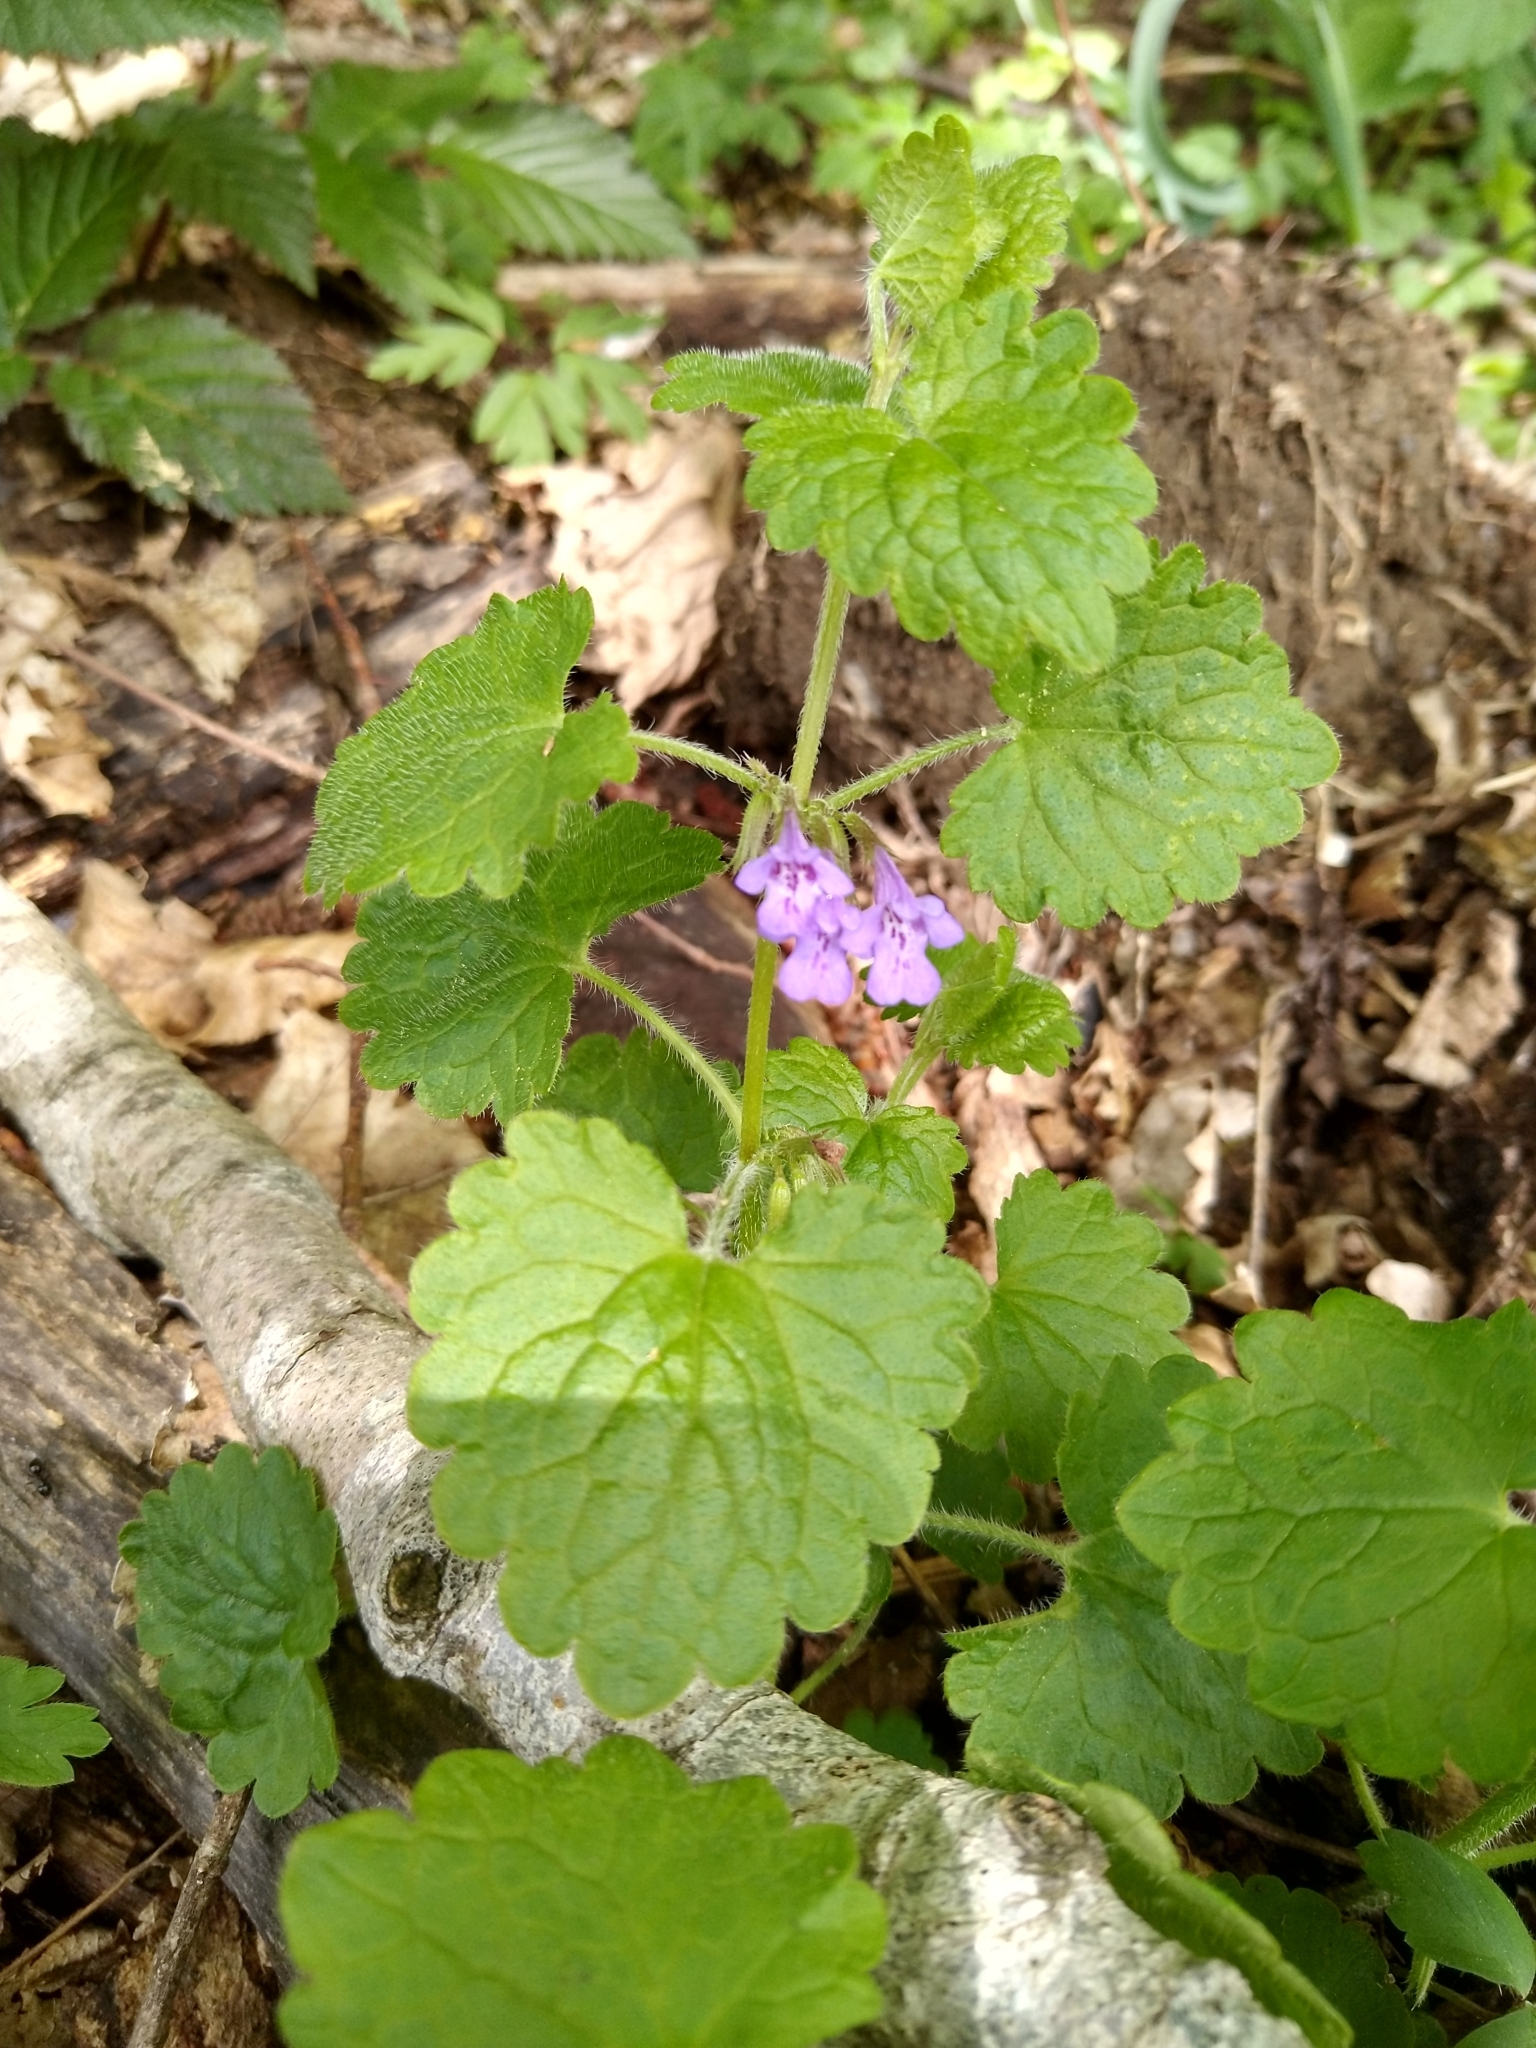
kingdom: Plantae
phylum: Tracheophyta
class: Magnoliopsida
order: Lamiales
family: Lamiaceae
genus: Glechoma
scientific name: Glechoma hederacea
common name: Ground ivy
